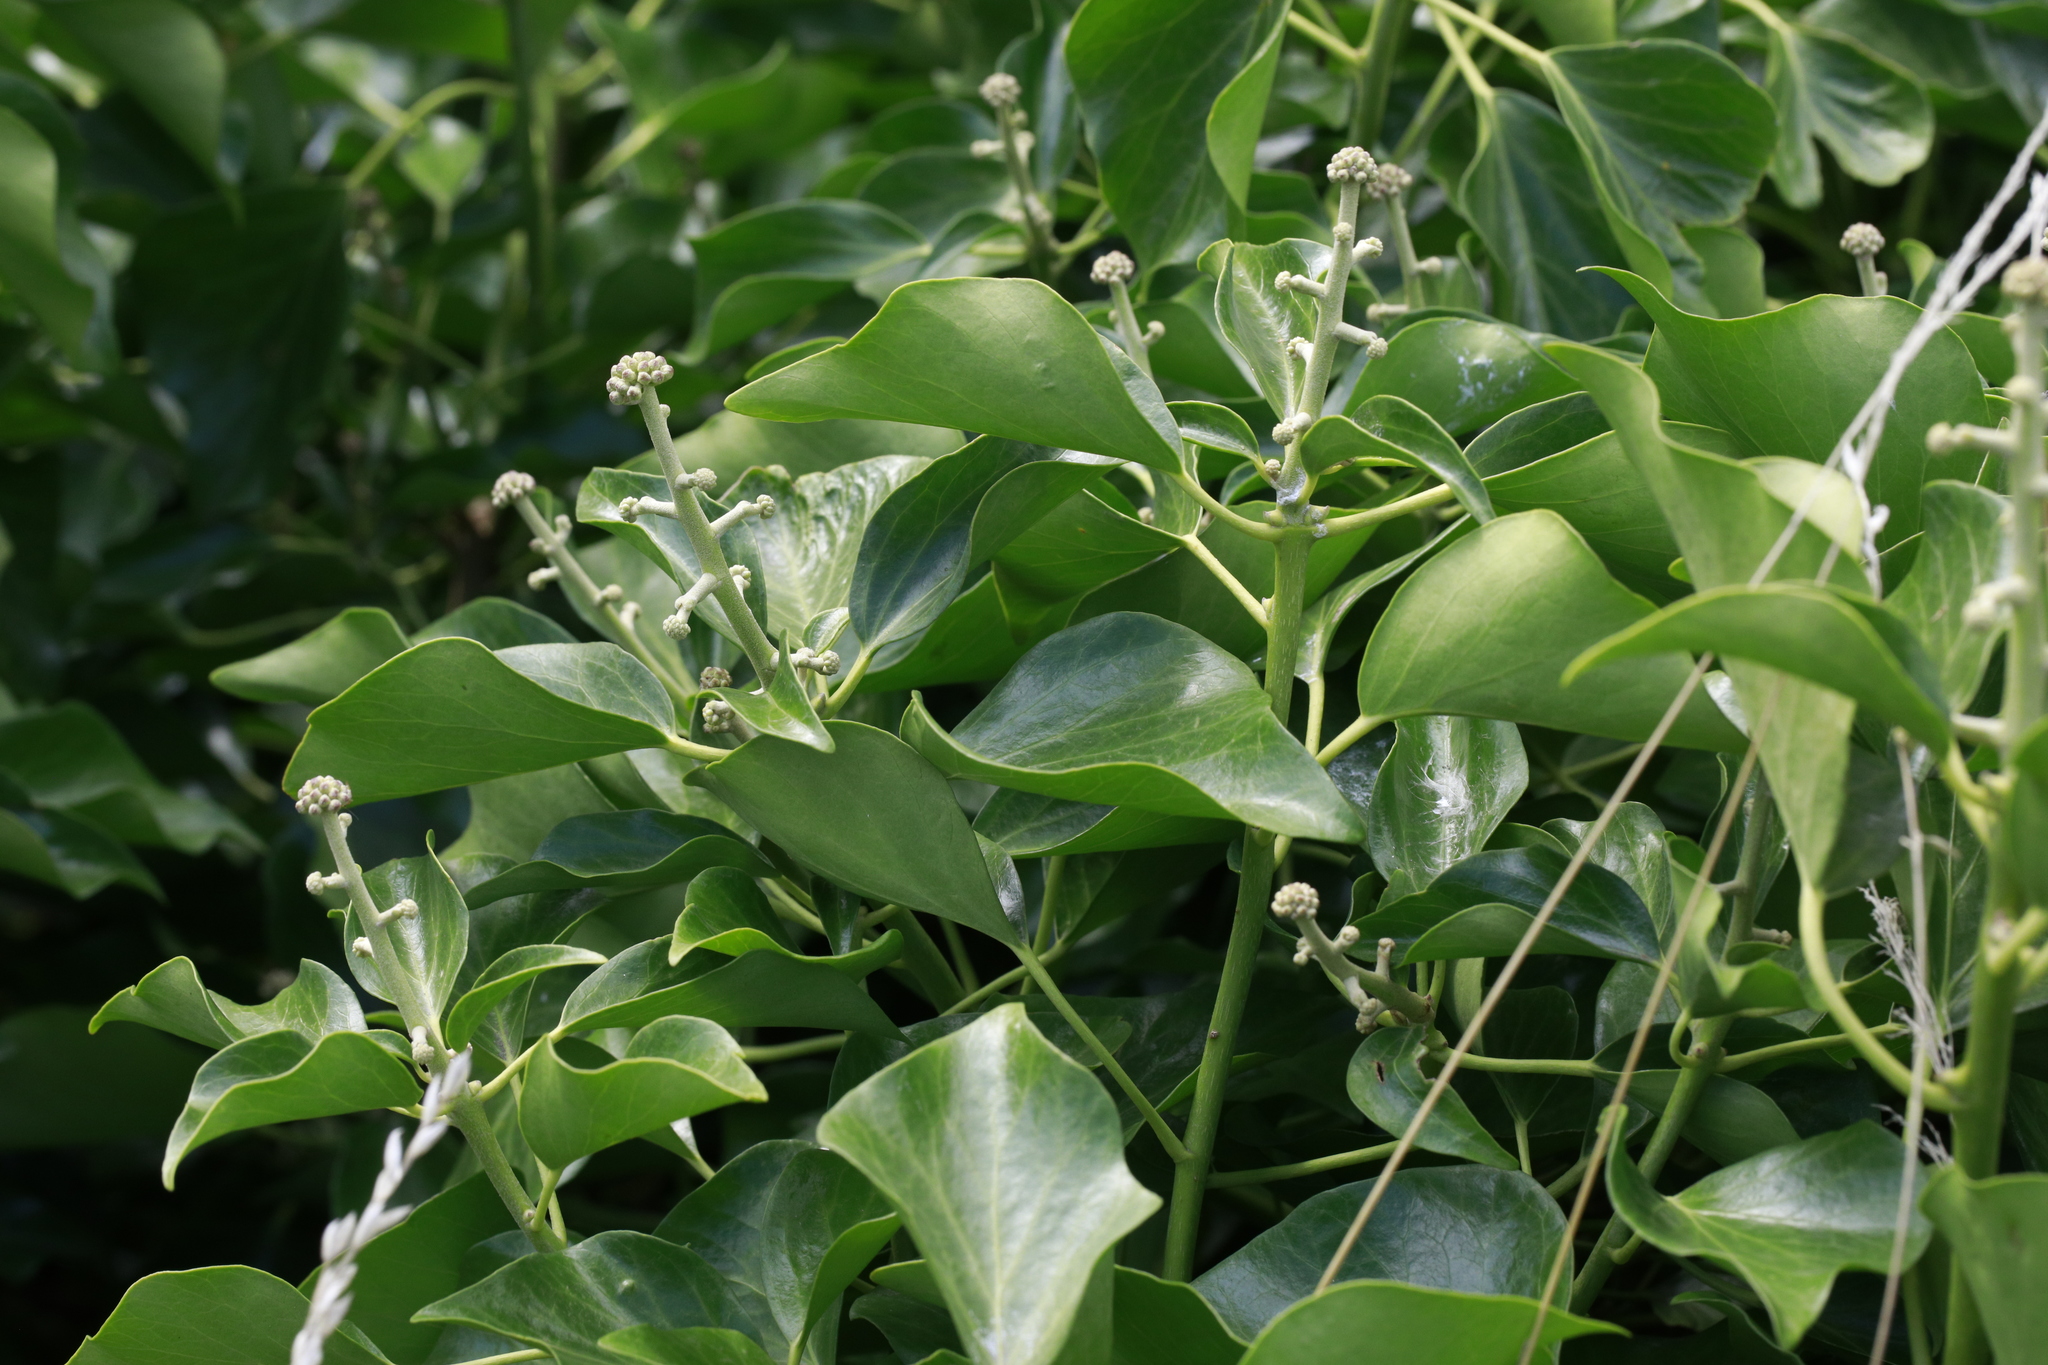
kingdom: Plantae
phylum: Tracheophyta
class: Magnoliopsida
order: Apiales
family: Araliaceae
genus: Hedera
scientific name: Hedera helix
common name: Ivy
